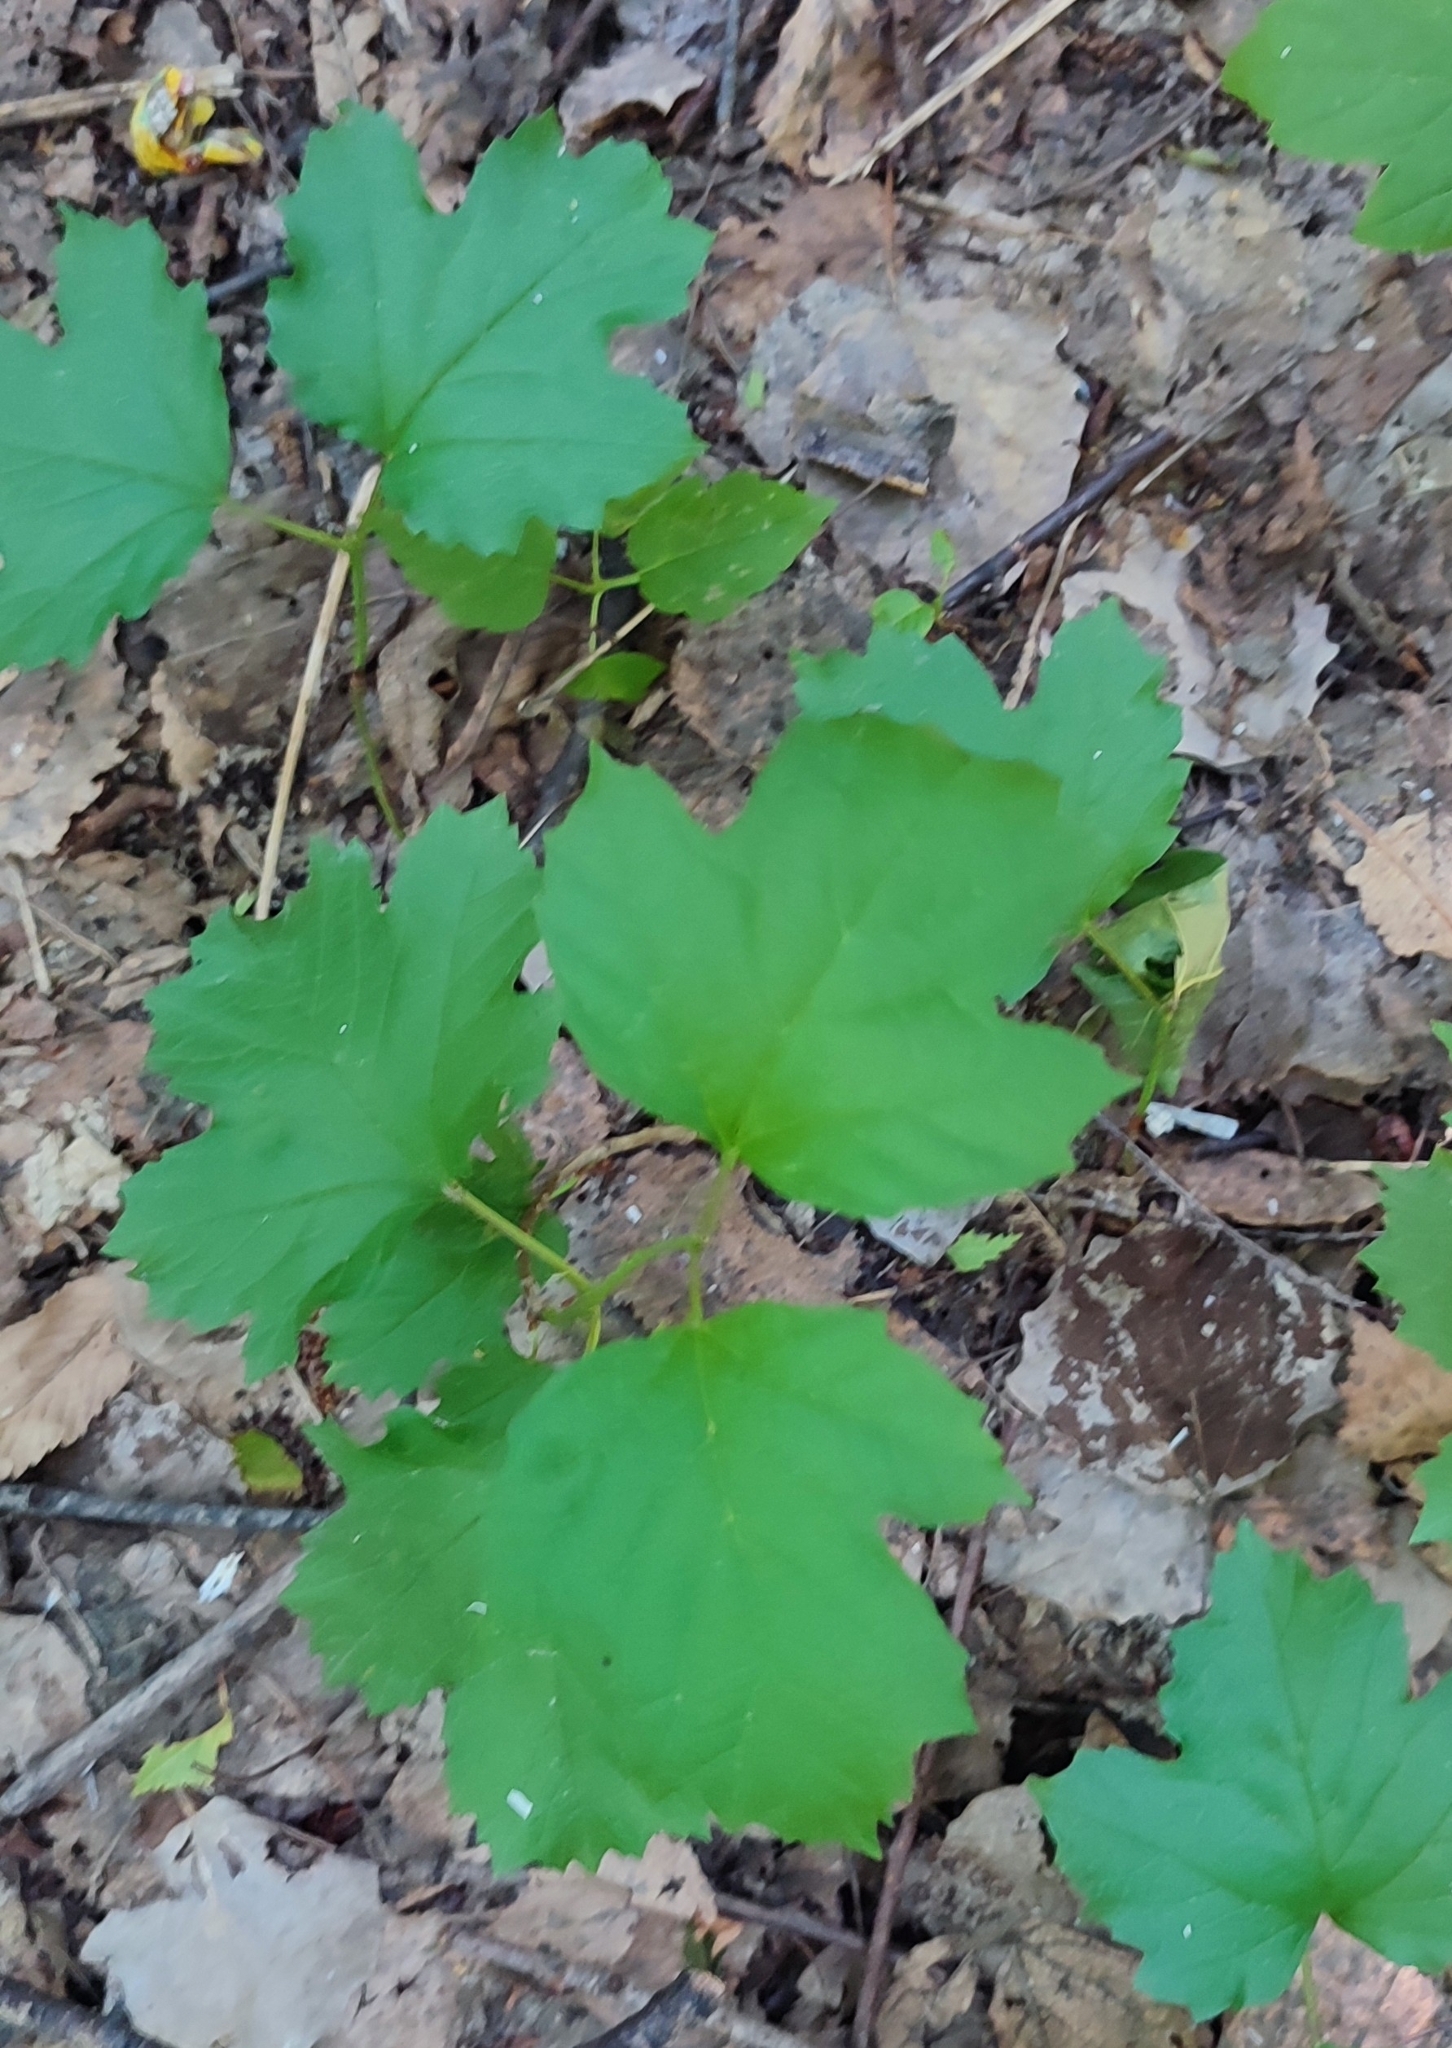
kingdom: Plantae
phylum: Tracheophyta
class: Magnoliopsida
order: Dipsacales
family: Viburnaceae
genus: Viburnum
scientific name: Viburnum opulus
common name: Guelder-rose
